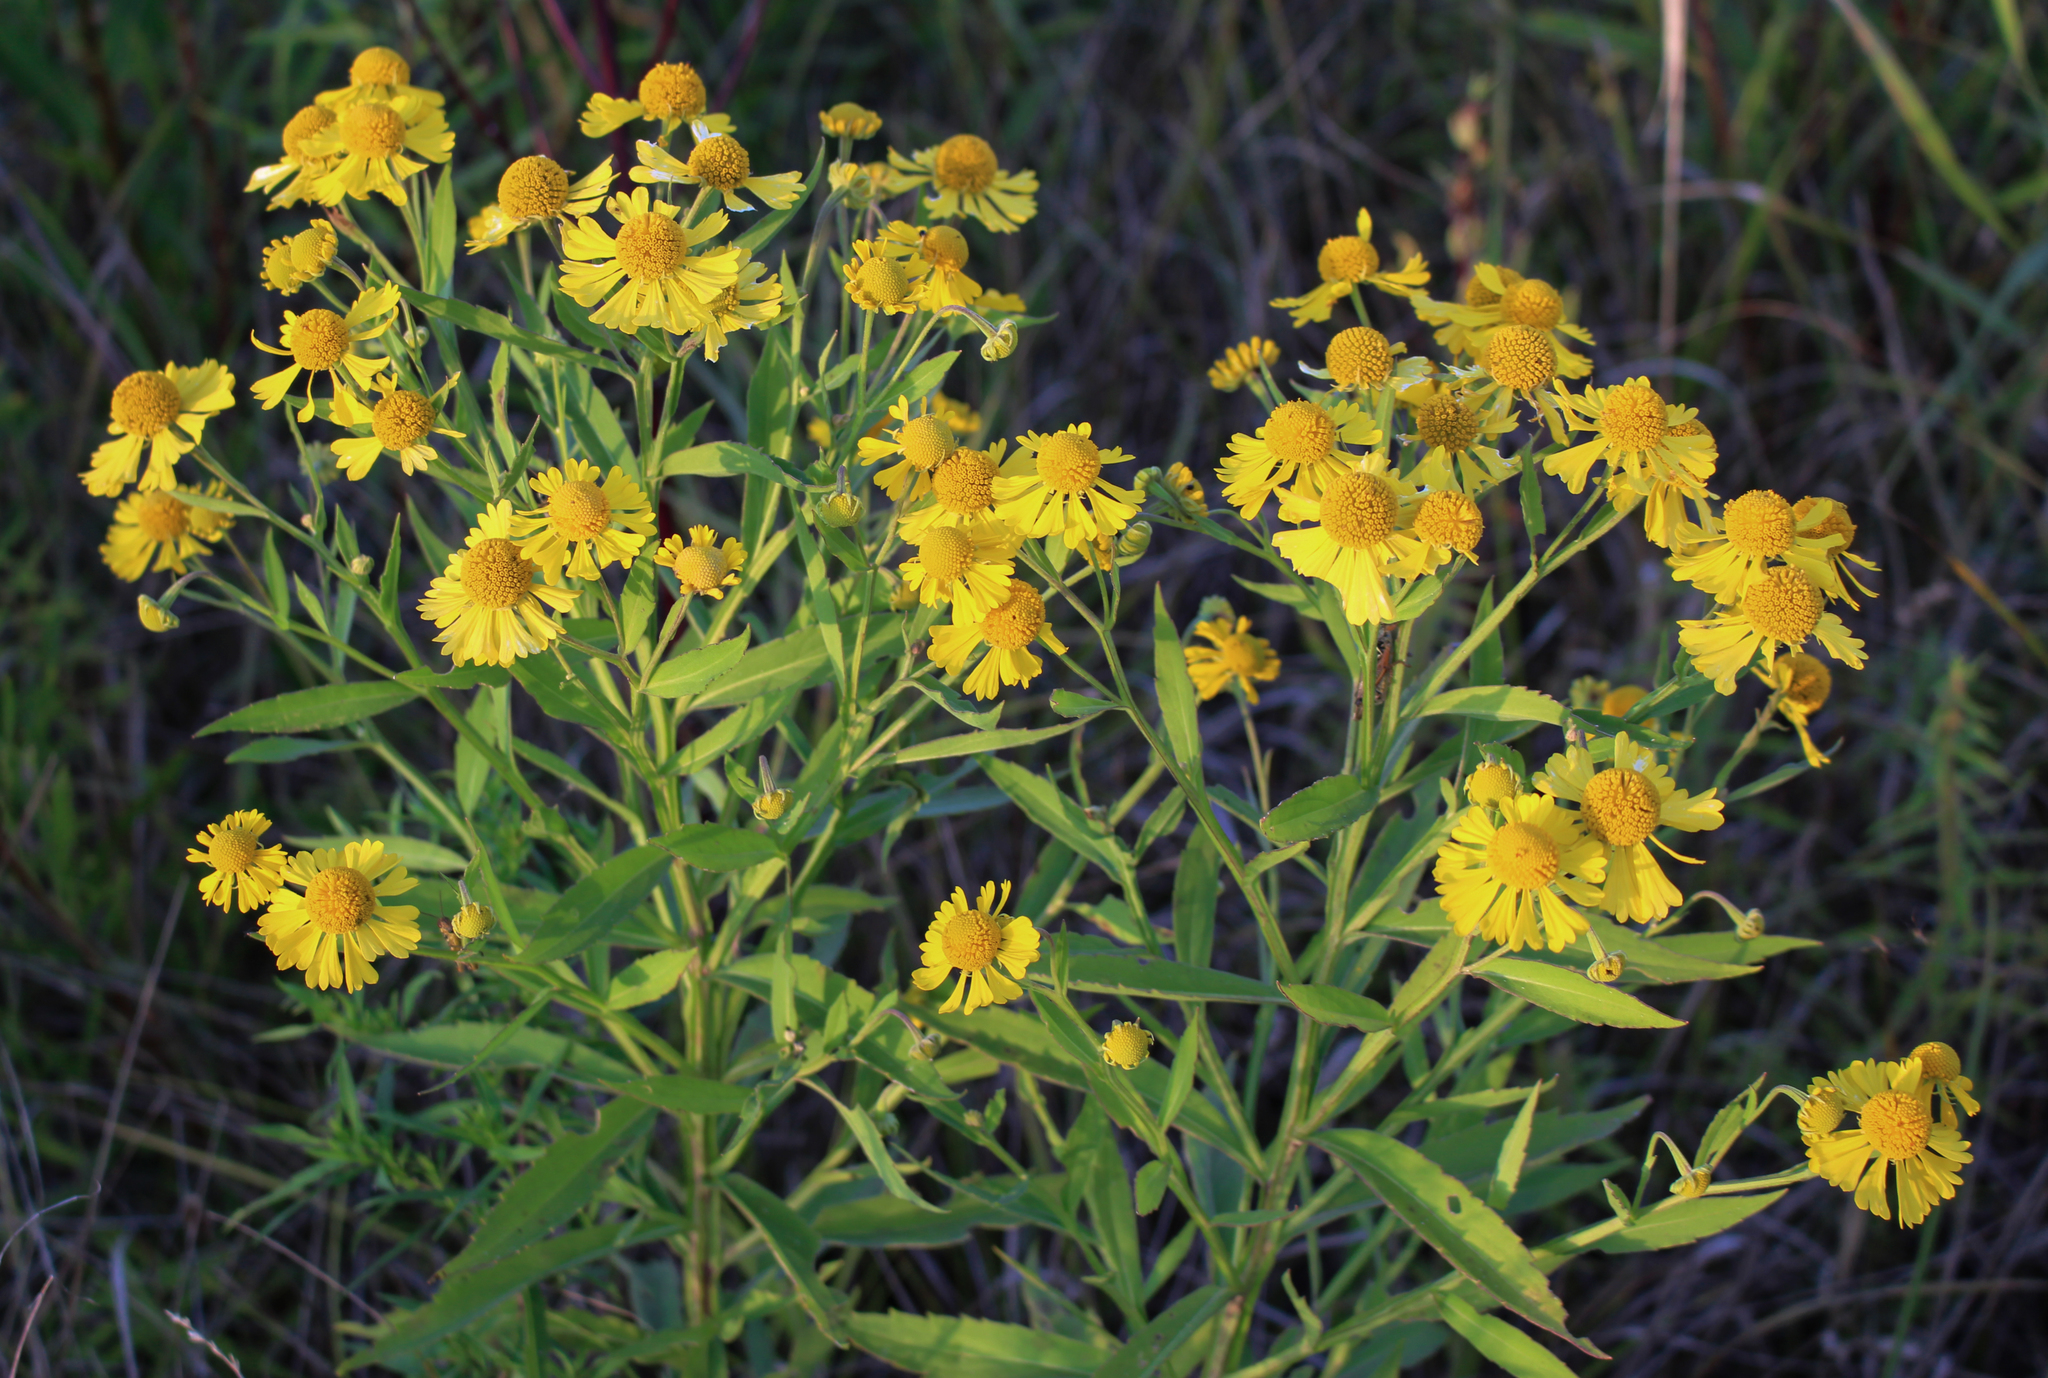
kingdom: Plantae
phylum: Tracheophyta
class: Magnoliopsida
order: Asterales
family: Asteraceae
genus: Helenium
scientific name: Helenium autumnale
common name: Sneezeweed
